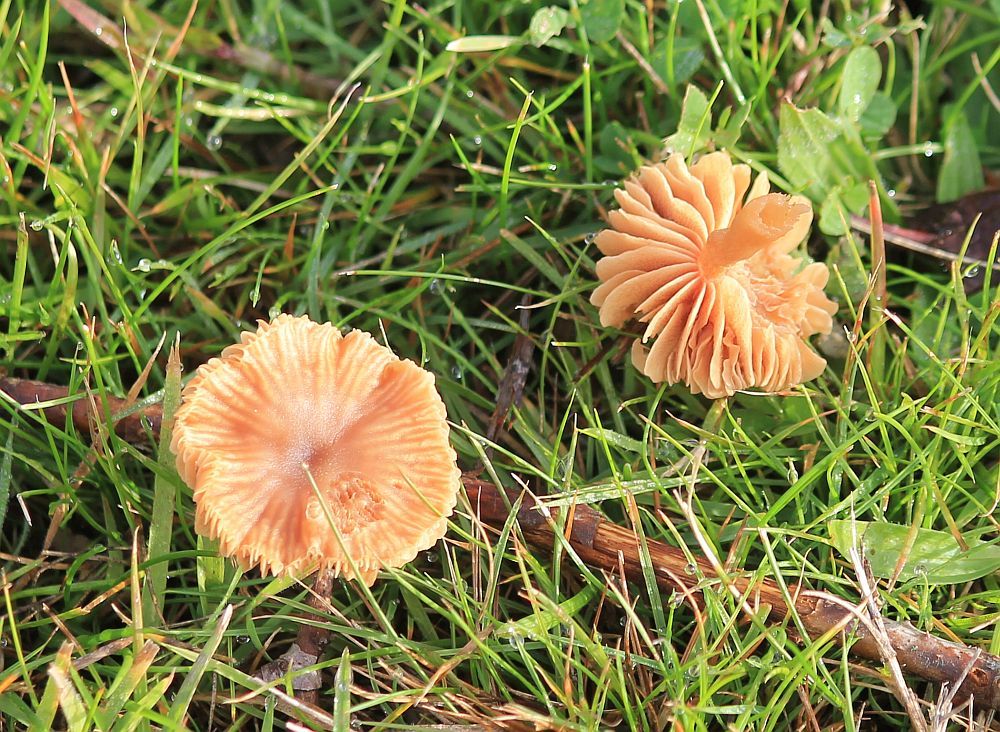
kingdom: Fungi
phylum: Basidiomycota
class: Agaricomycetes
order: Agaricales
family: Hydnangiaceae
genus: Laccaria
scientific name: Laccaria laccata
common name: Deceiver
